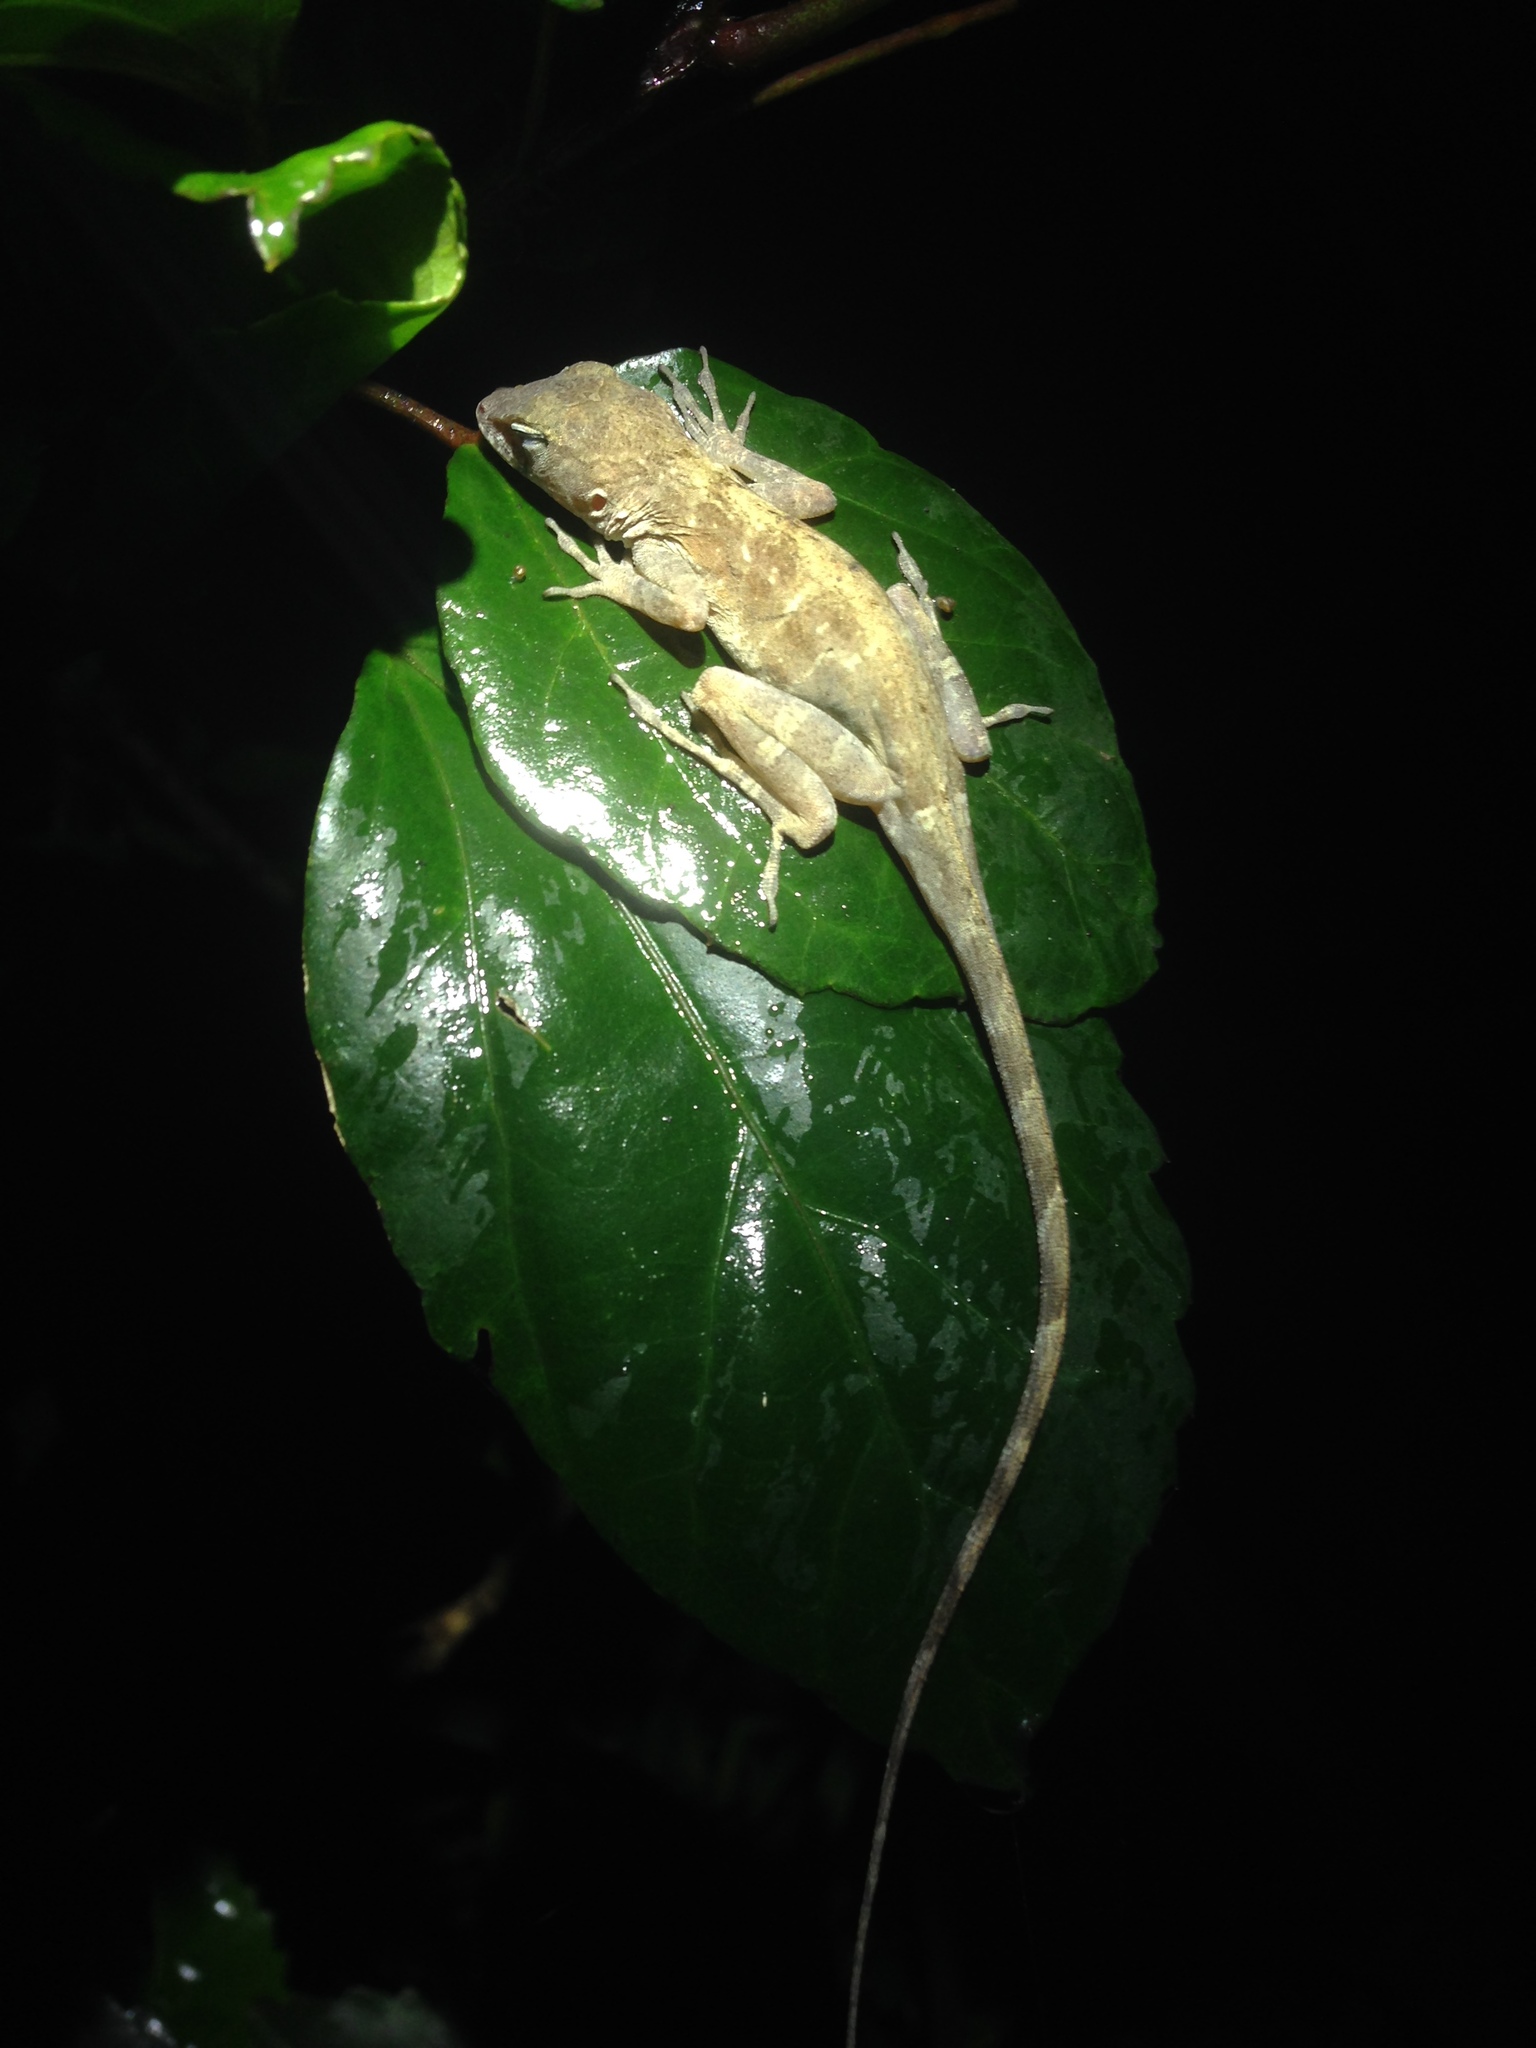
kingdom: Animalia
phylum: Chordata
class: Squamata
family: Dactyloidae
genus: Anolis
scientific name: Anolis cristatellus
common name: Crested anole
